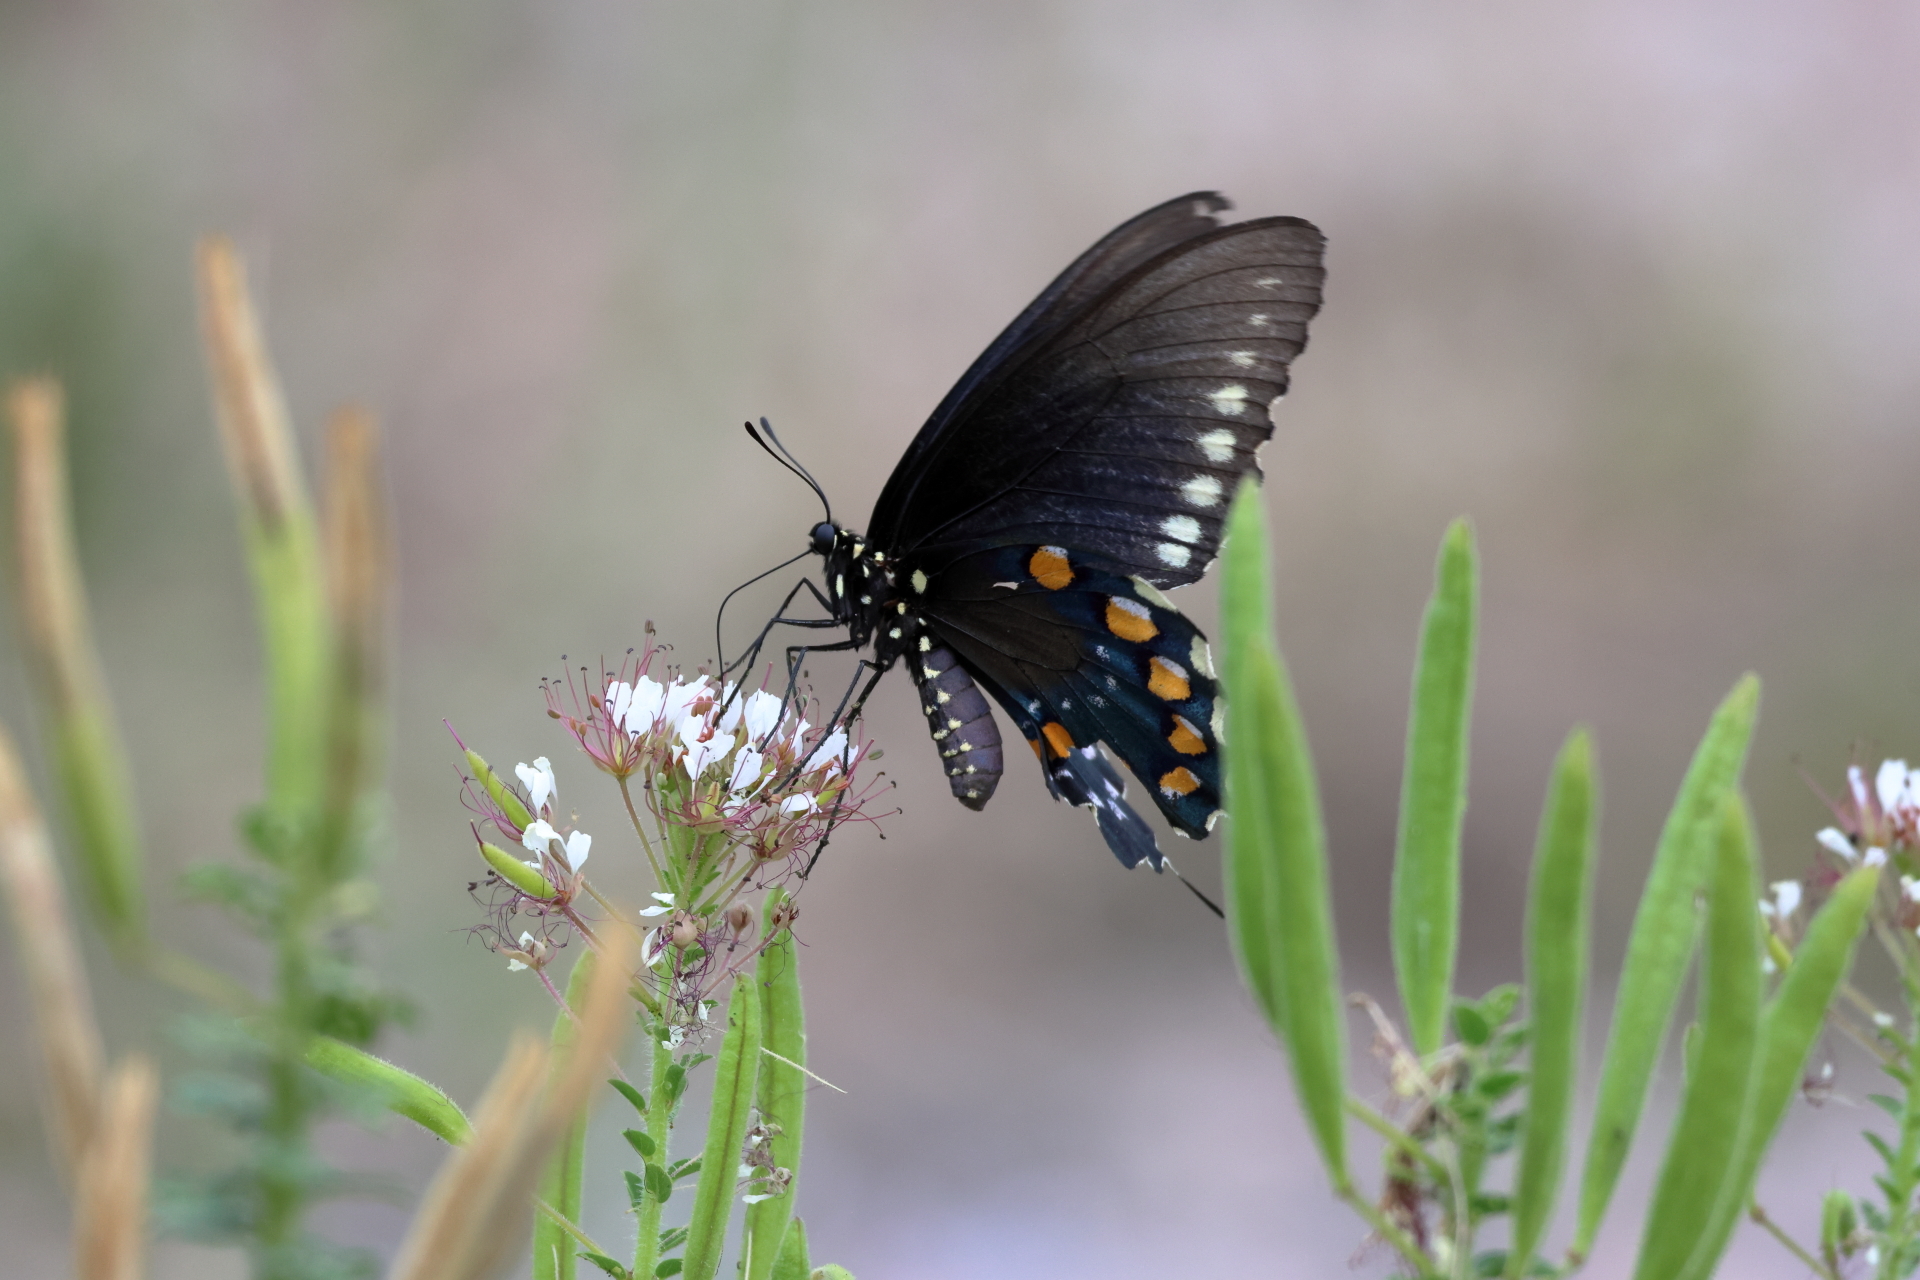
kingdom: Animalia
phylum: Arthropoda
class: Insecta
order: Lepidoptera
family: Papilionidae
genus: Battus
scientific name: Battus philenor
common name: Pipevine swallowtail
